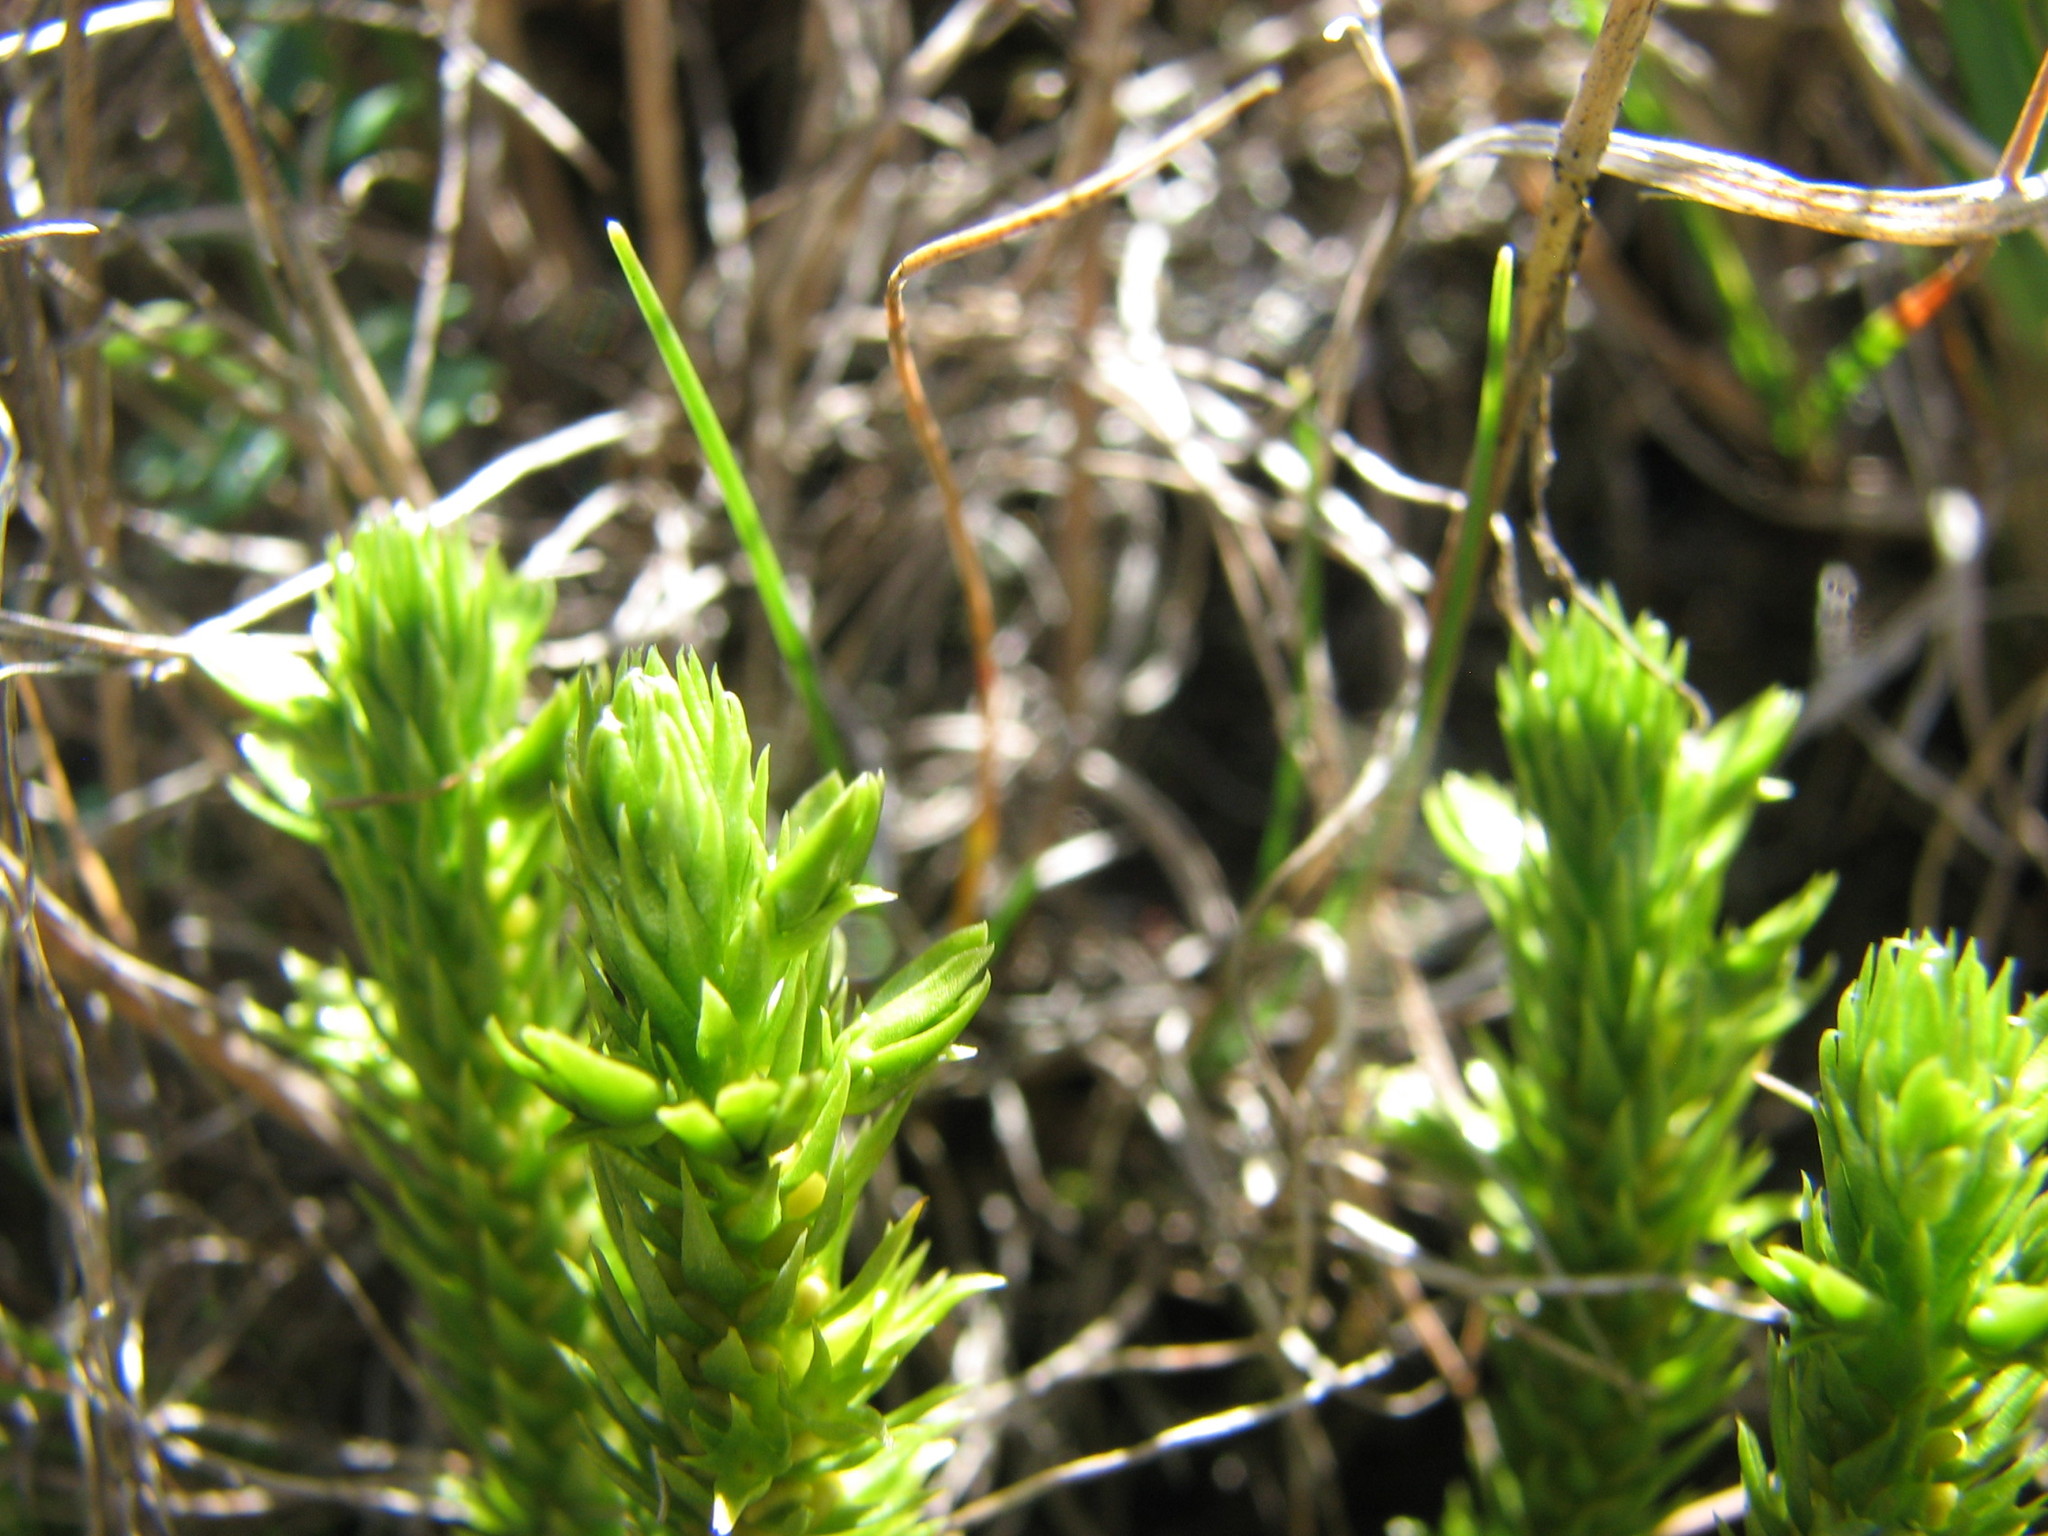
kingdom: Plantae
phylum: Tracheophyta
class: Lycopodiopsida
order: Lycopodiales
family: Lycopodiaceae
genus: Huperzia
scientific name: Huperzia selago
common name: Northern firmoss
